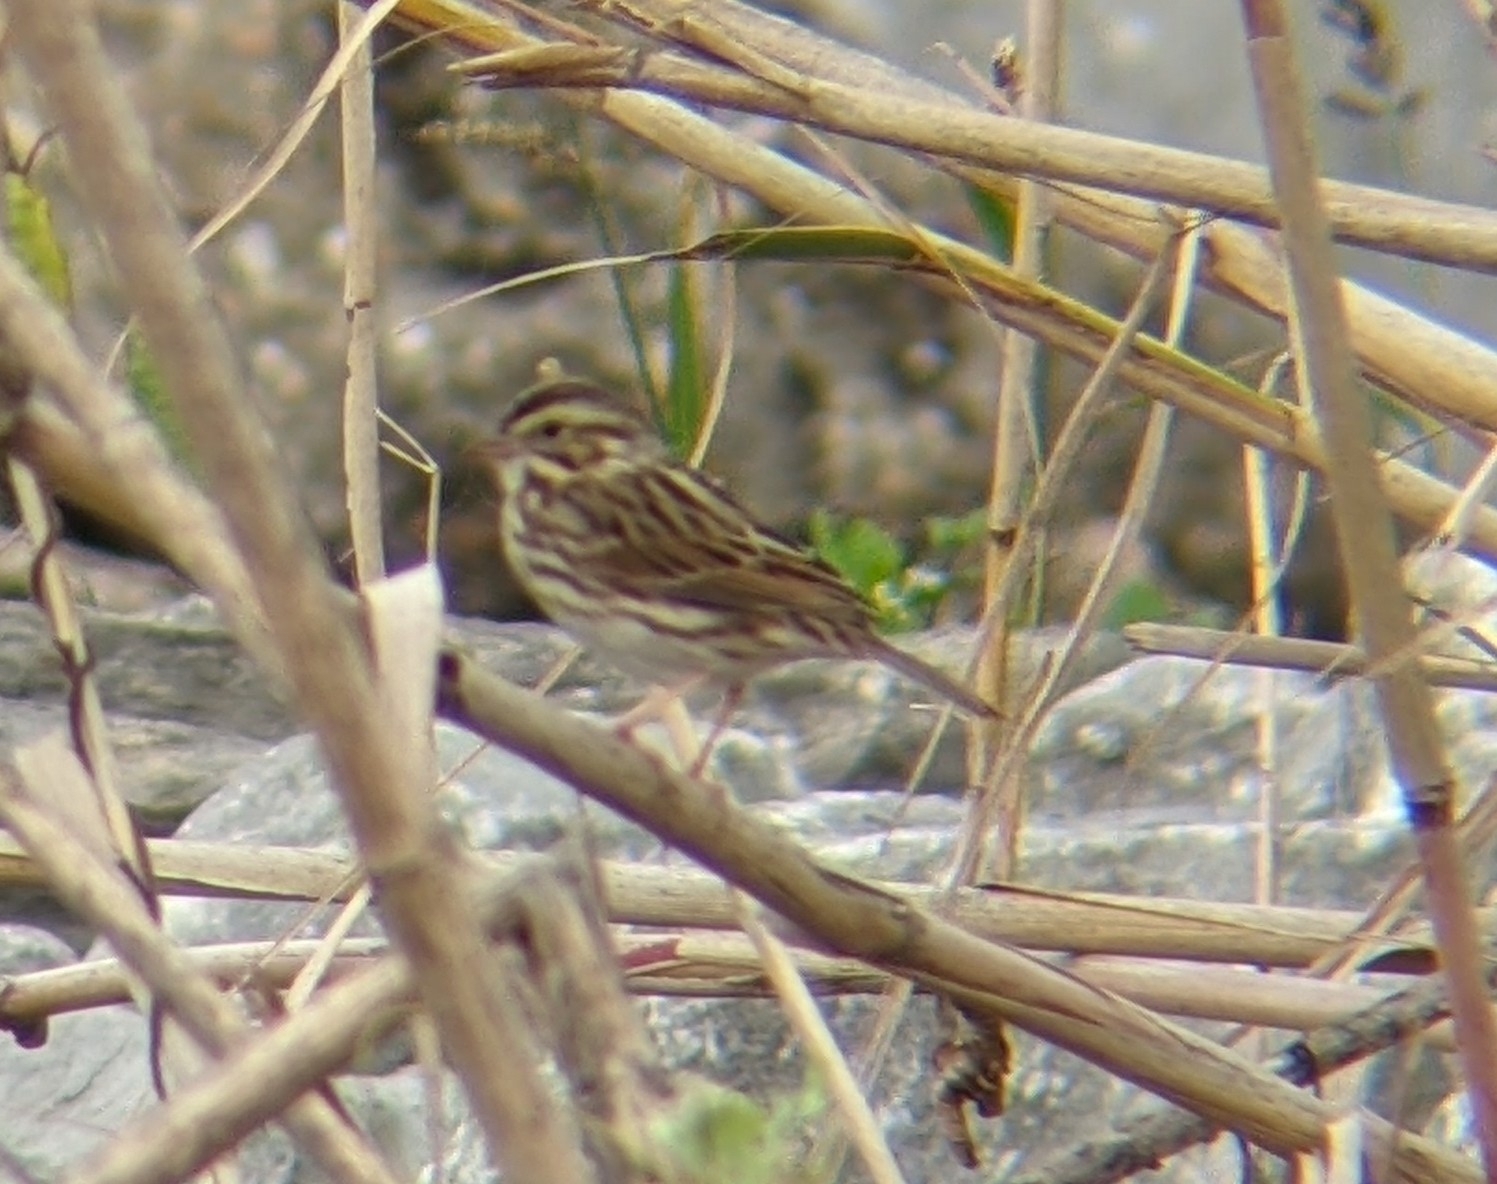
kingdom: Animalia
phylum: Chordata
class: Aves
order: Passeriformes
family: Passerellidae
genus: Passerculus
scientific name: Passerculus sandwichensis
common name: Savannah sparrow
